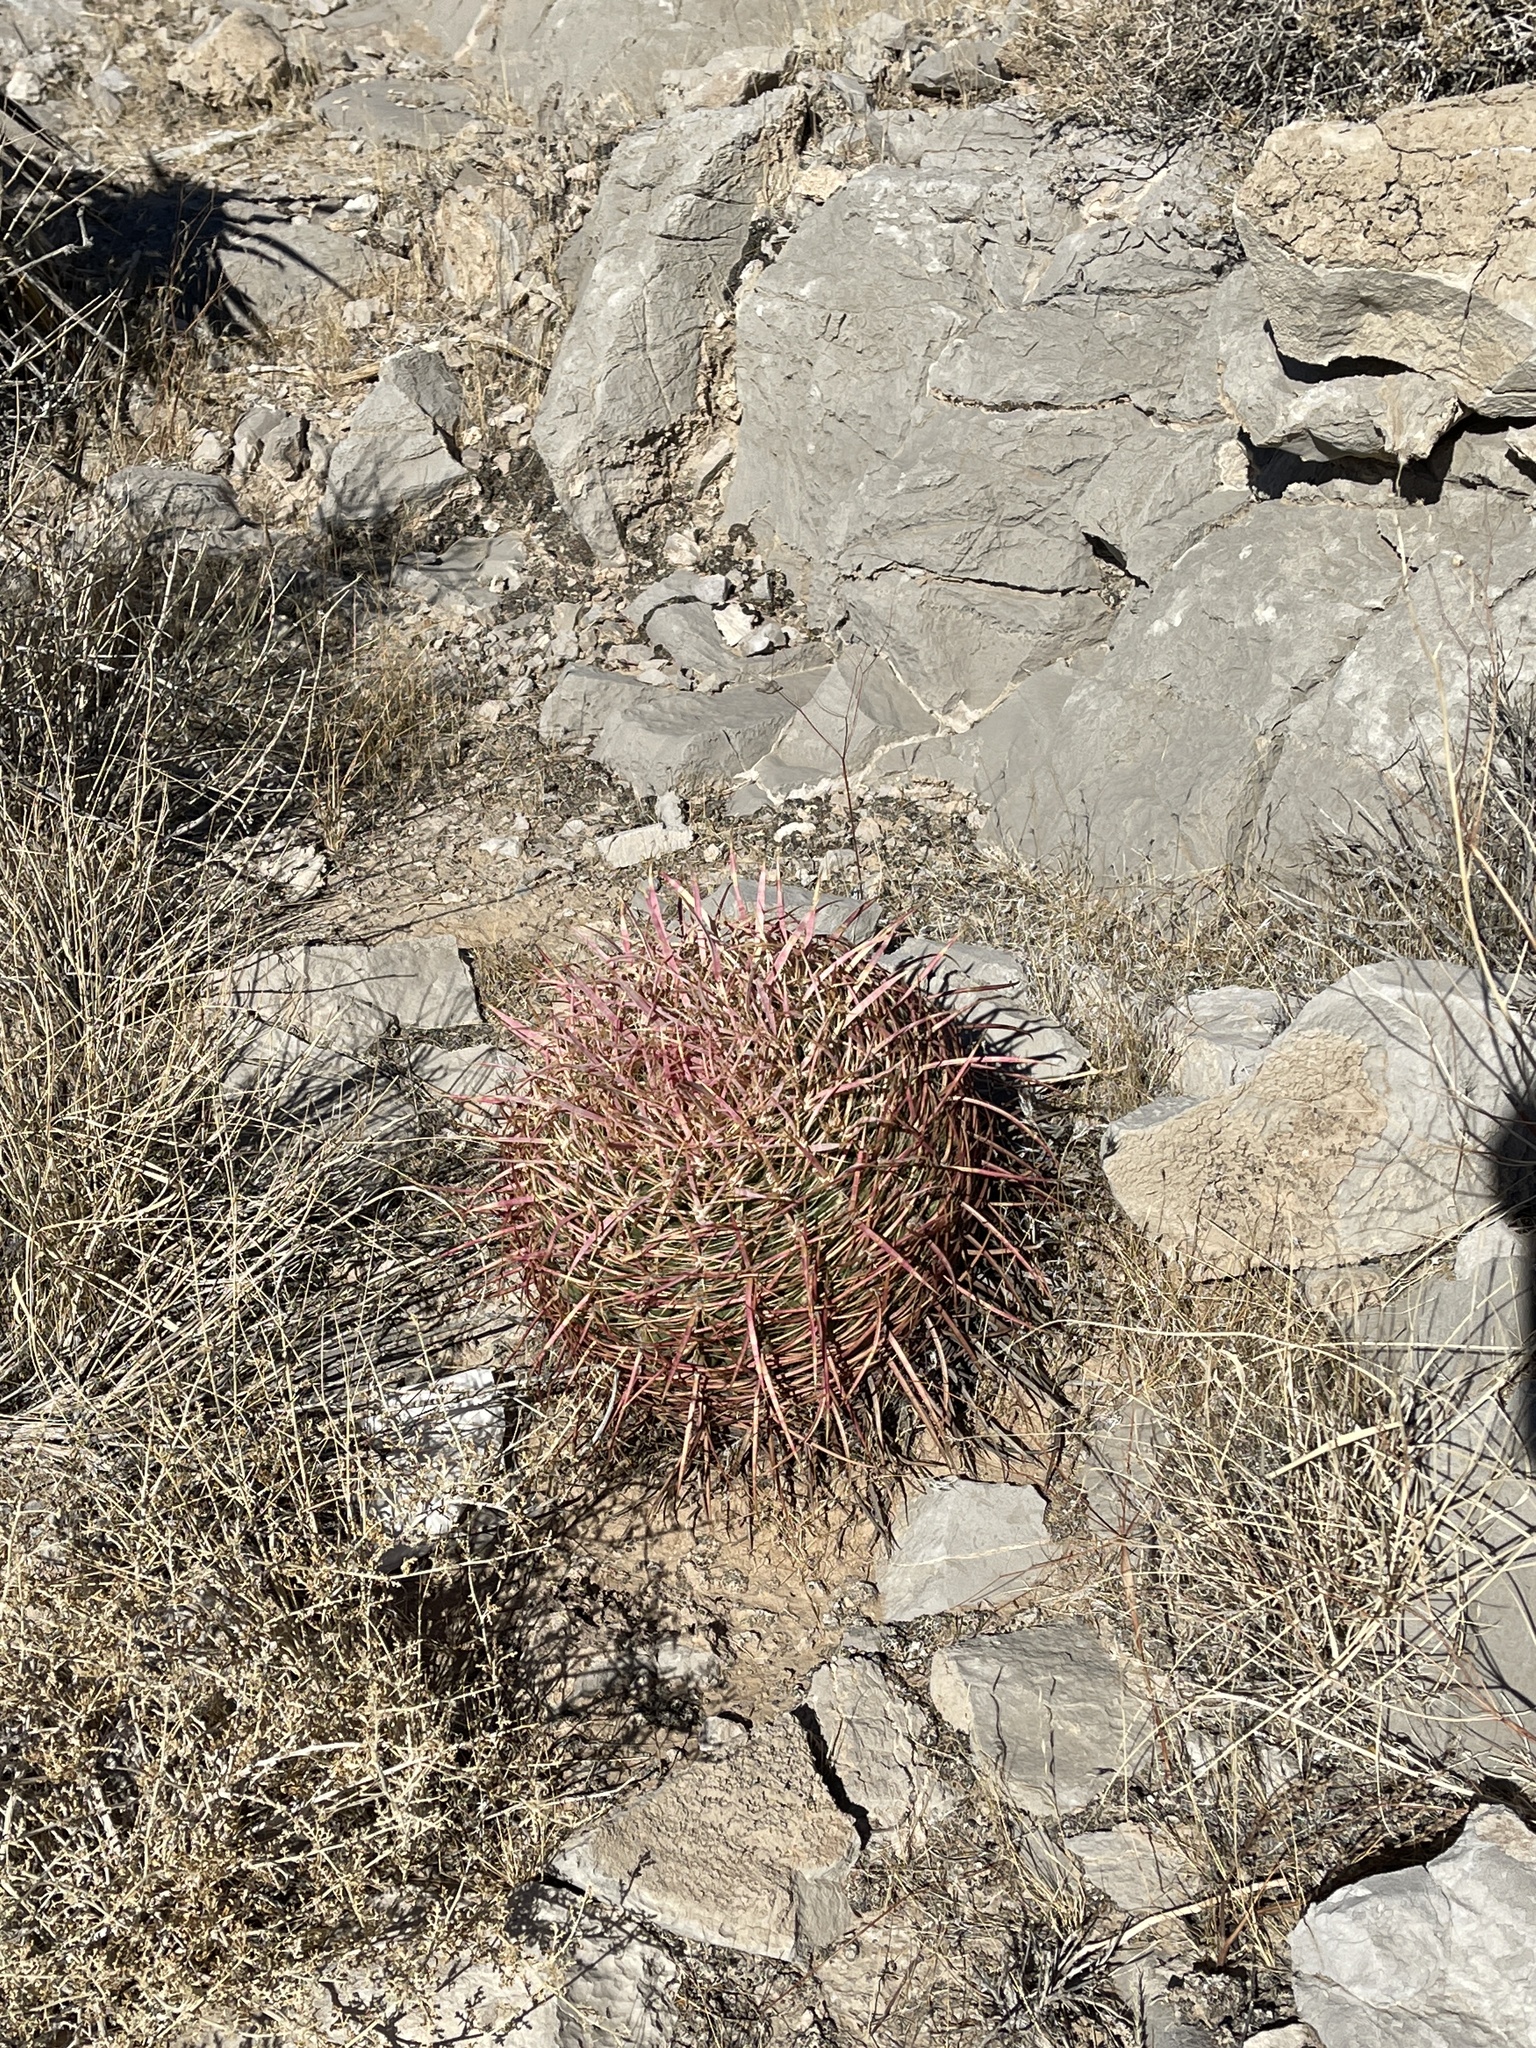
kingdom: Plantae
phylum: Tracheophyta
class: Magnoliopsida
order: Caryophyllales
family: Cactaceae
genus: Ferocactus
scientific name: Ferocactus cylindraceus
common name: California barrel cactus
